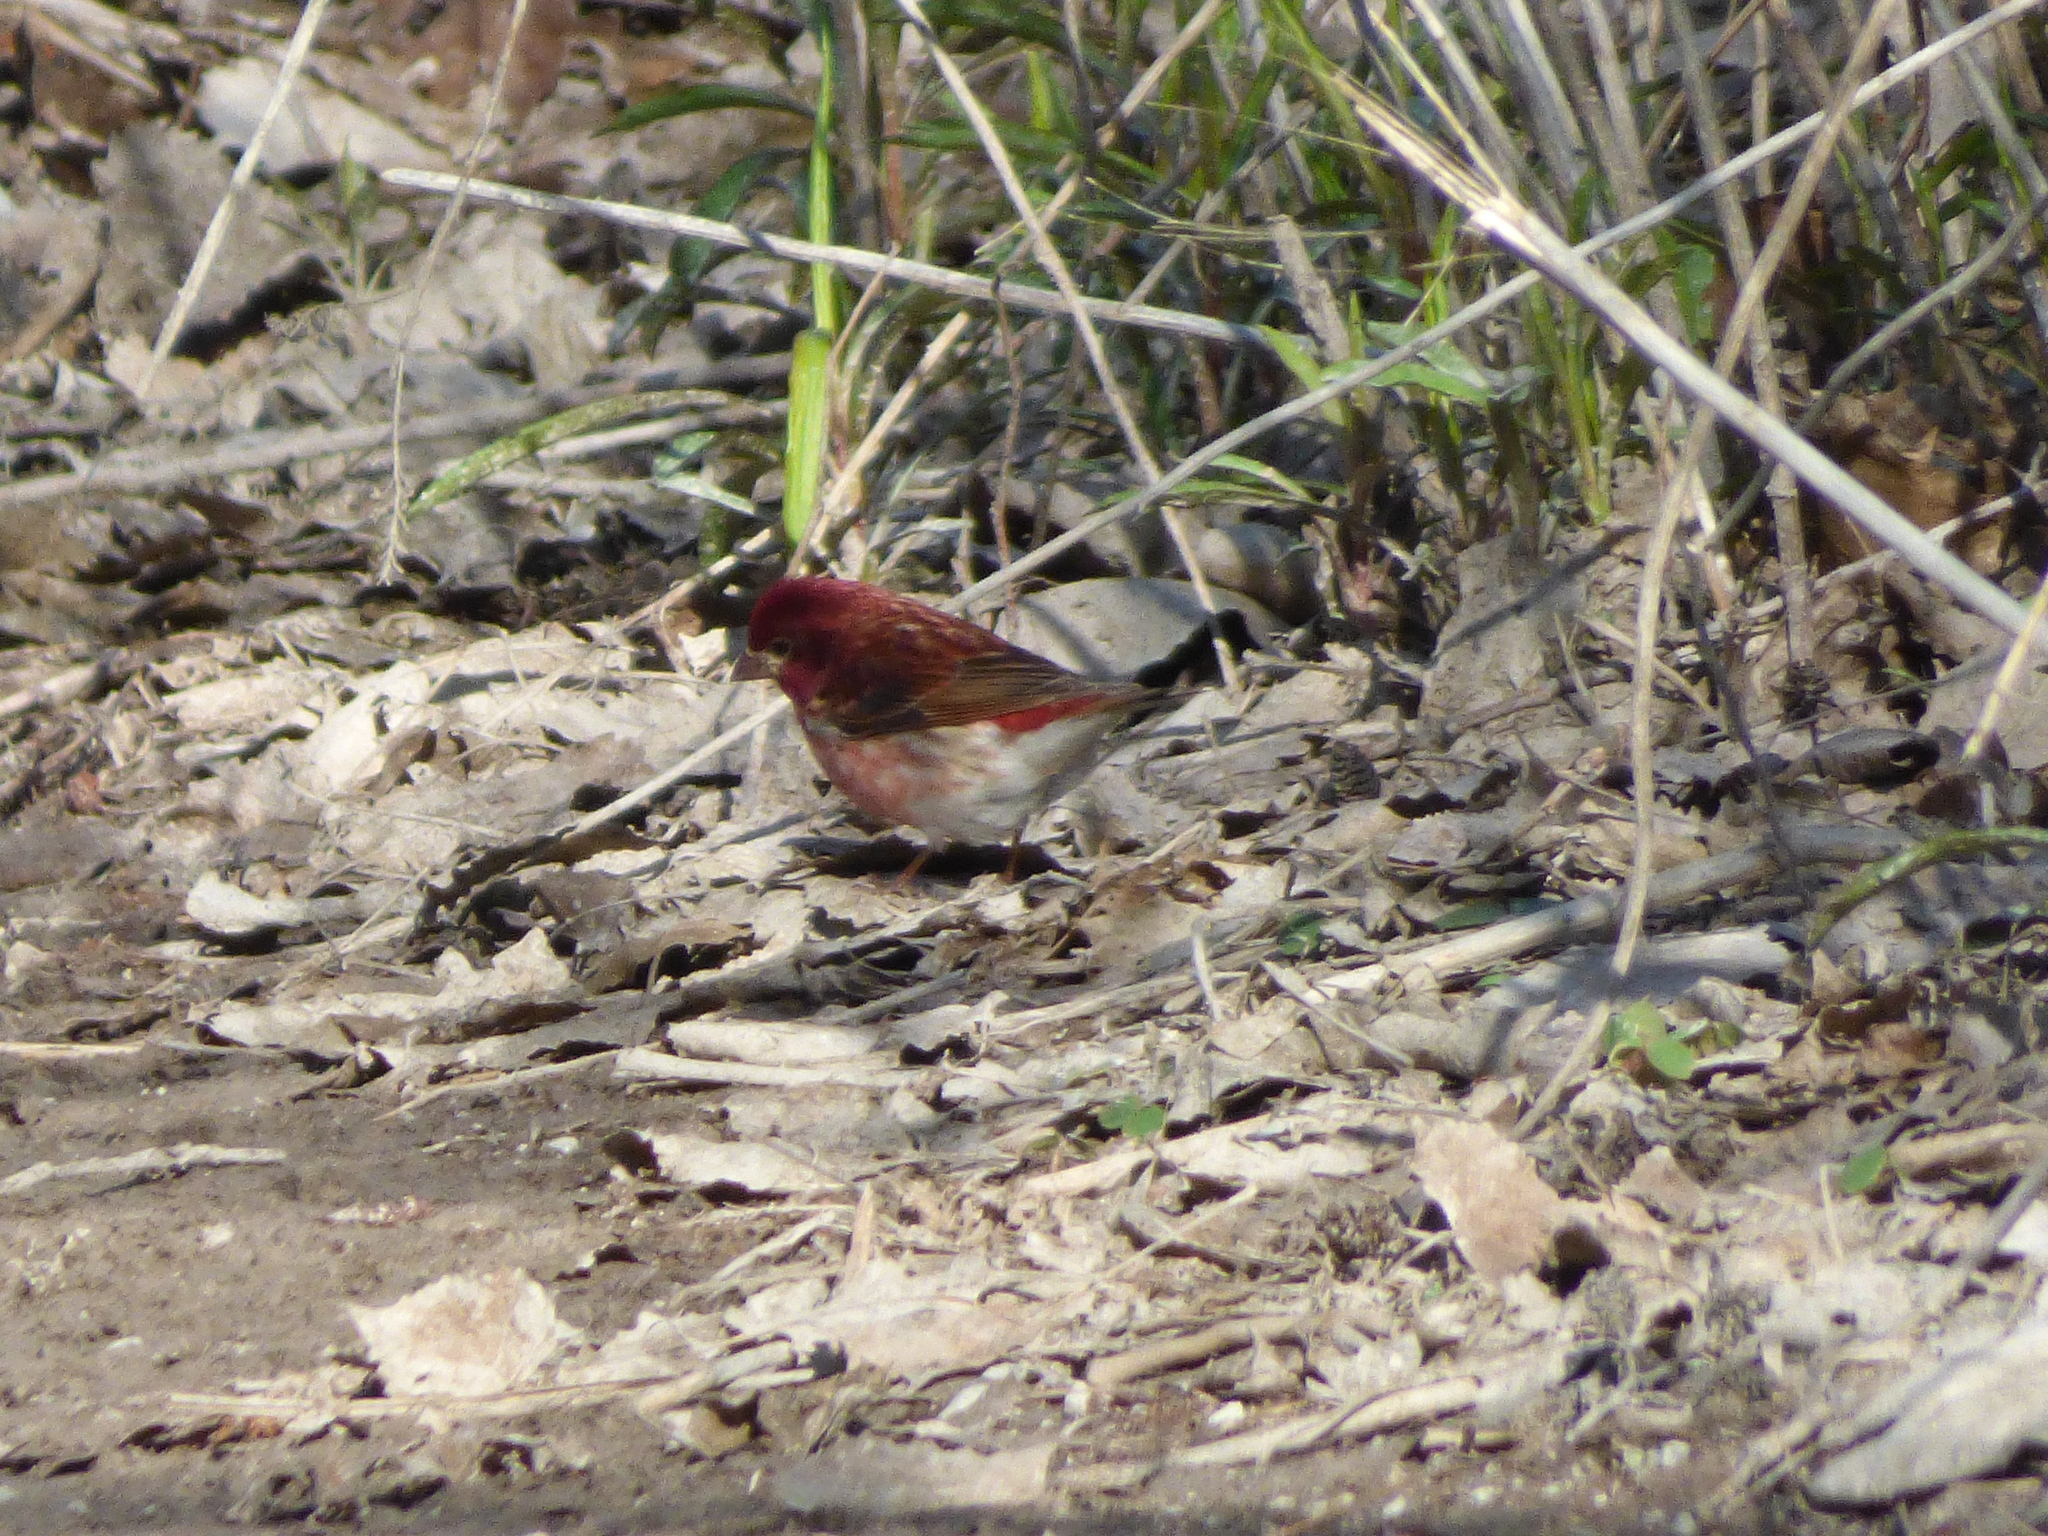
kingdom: Animalia
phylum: Chordata
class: Aves
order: Passeriformes
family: Fringillidae
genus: Haemorhous
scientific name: Haemorhous purpureus
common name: Purple finch
